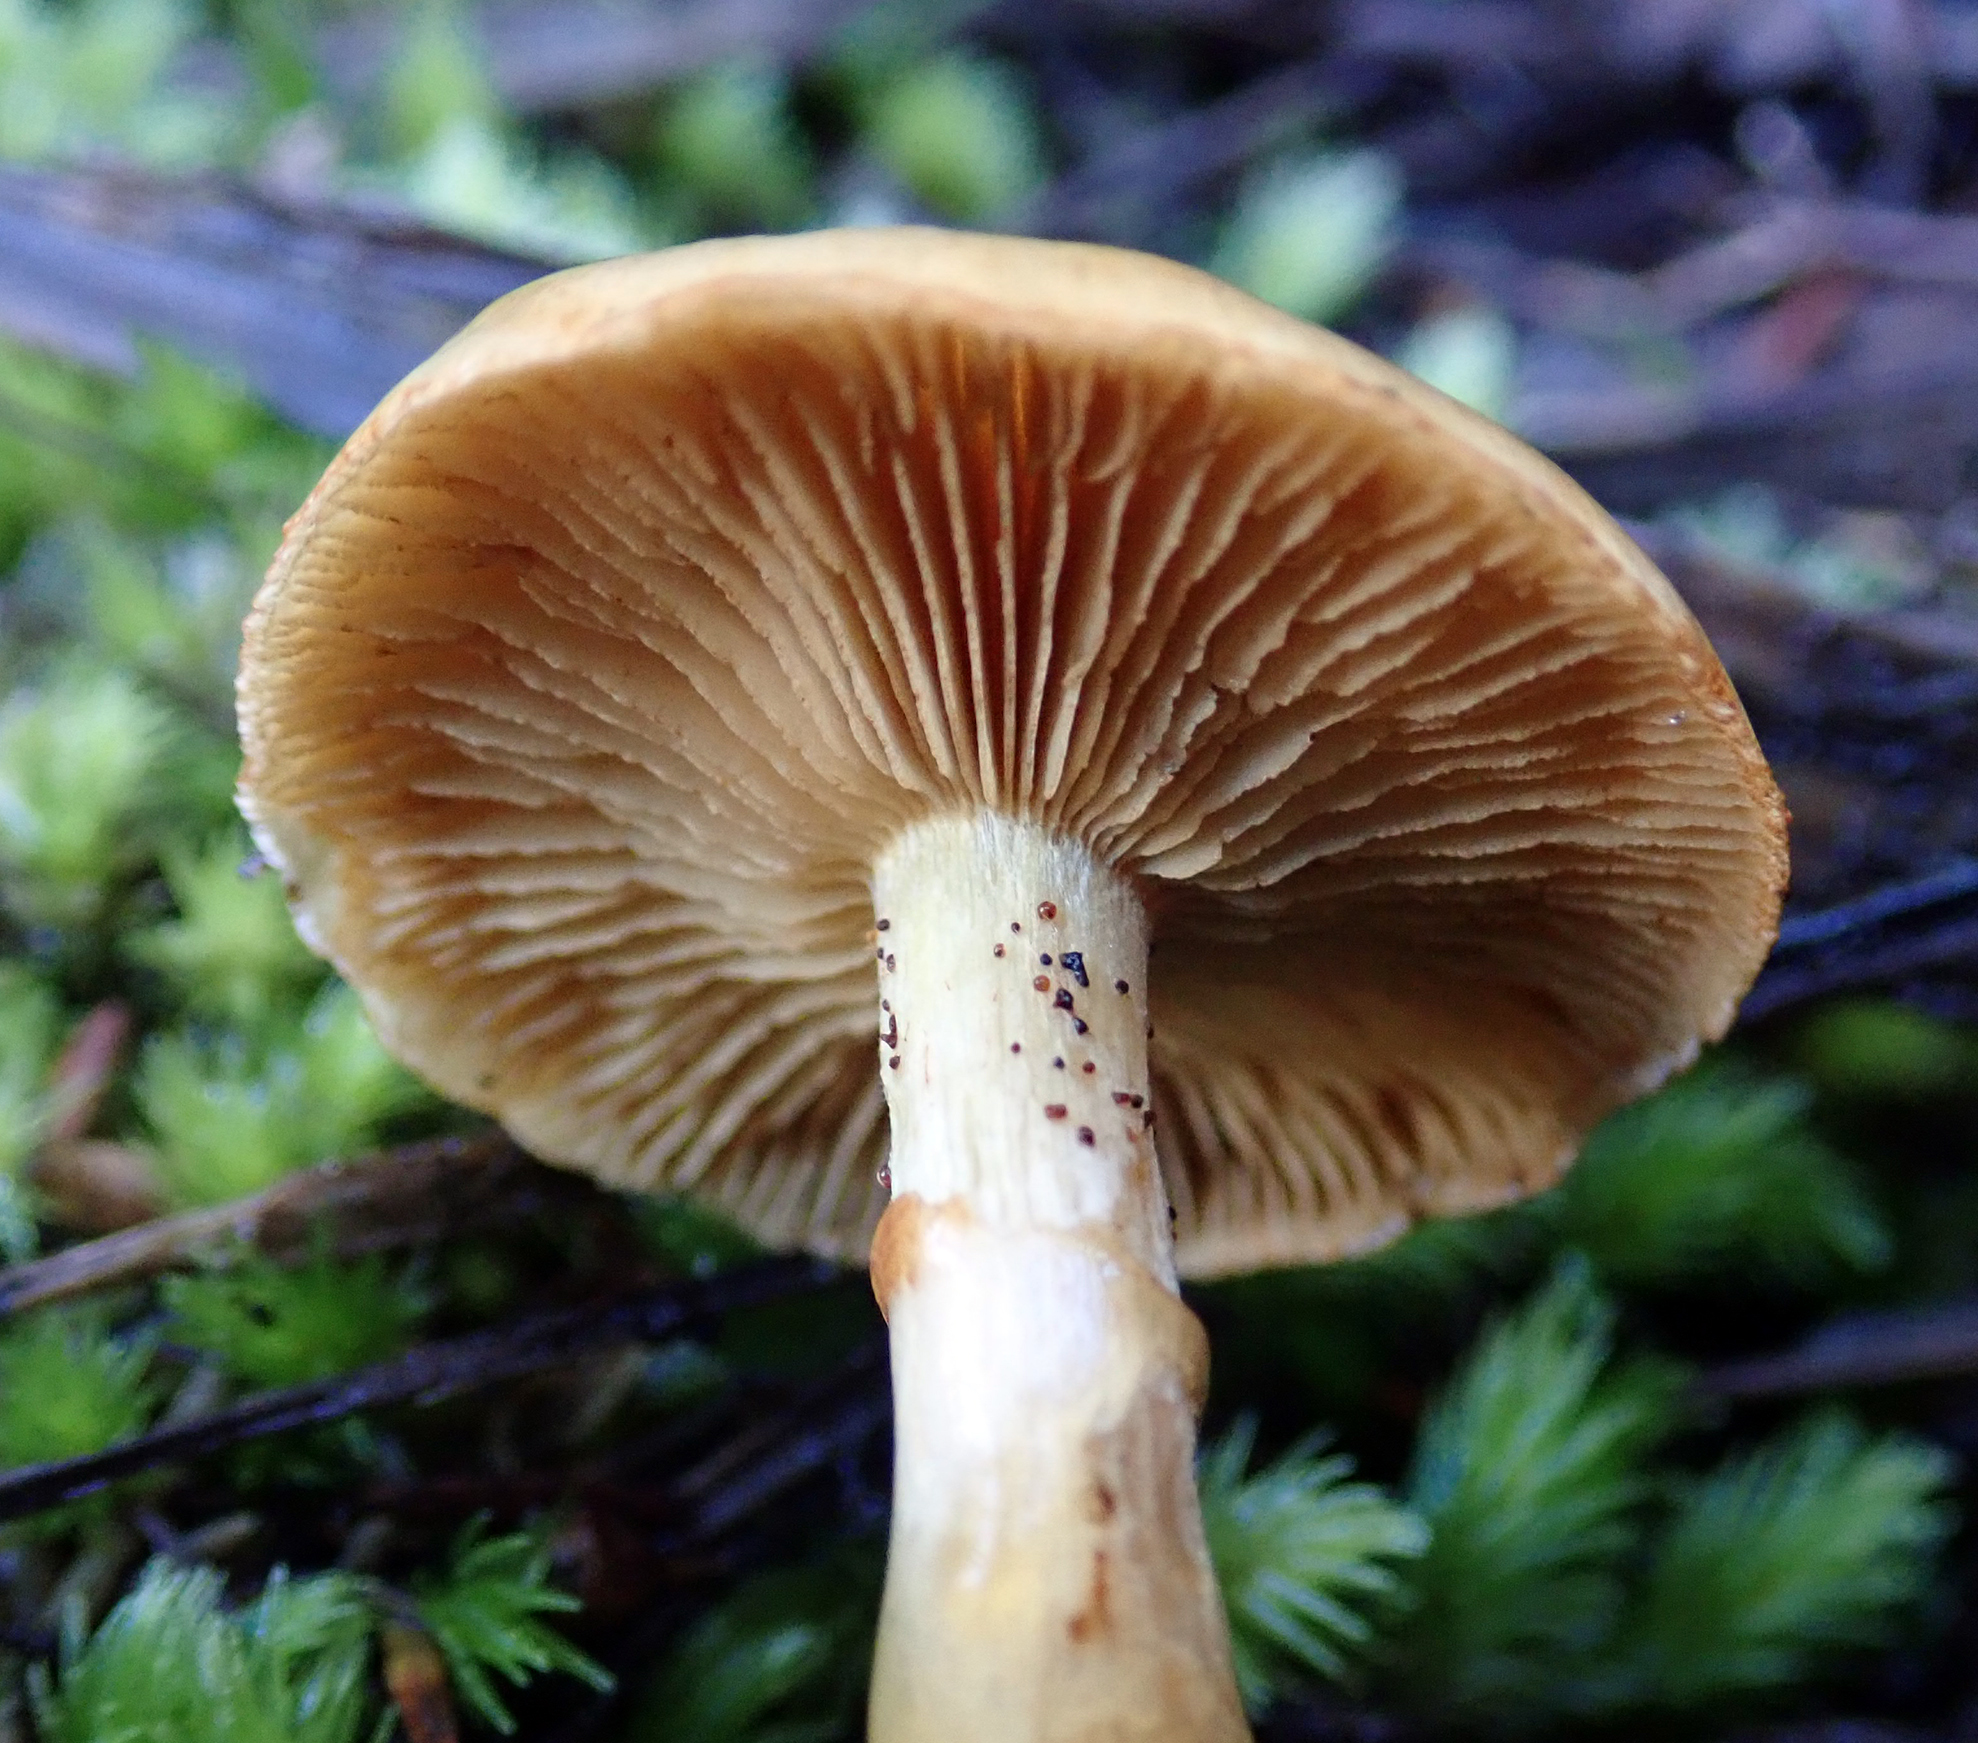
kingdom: Fungi
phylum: Basidiomycota
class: Agaricomycetes
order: Agaricales
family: Cortinariaceae
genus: Cortinarius
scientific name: Cortinarius ignotus
